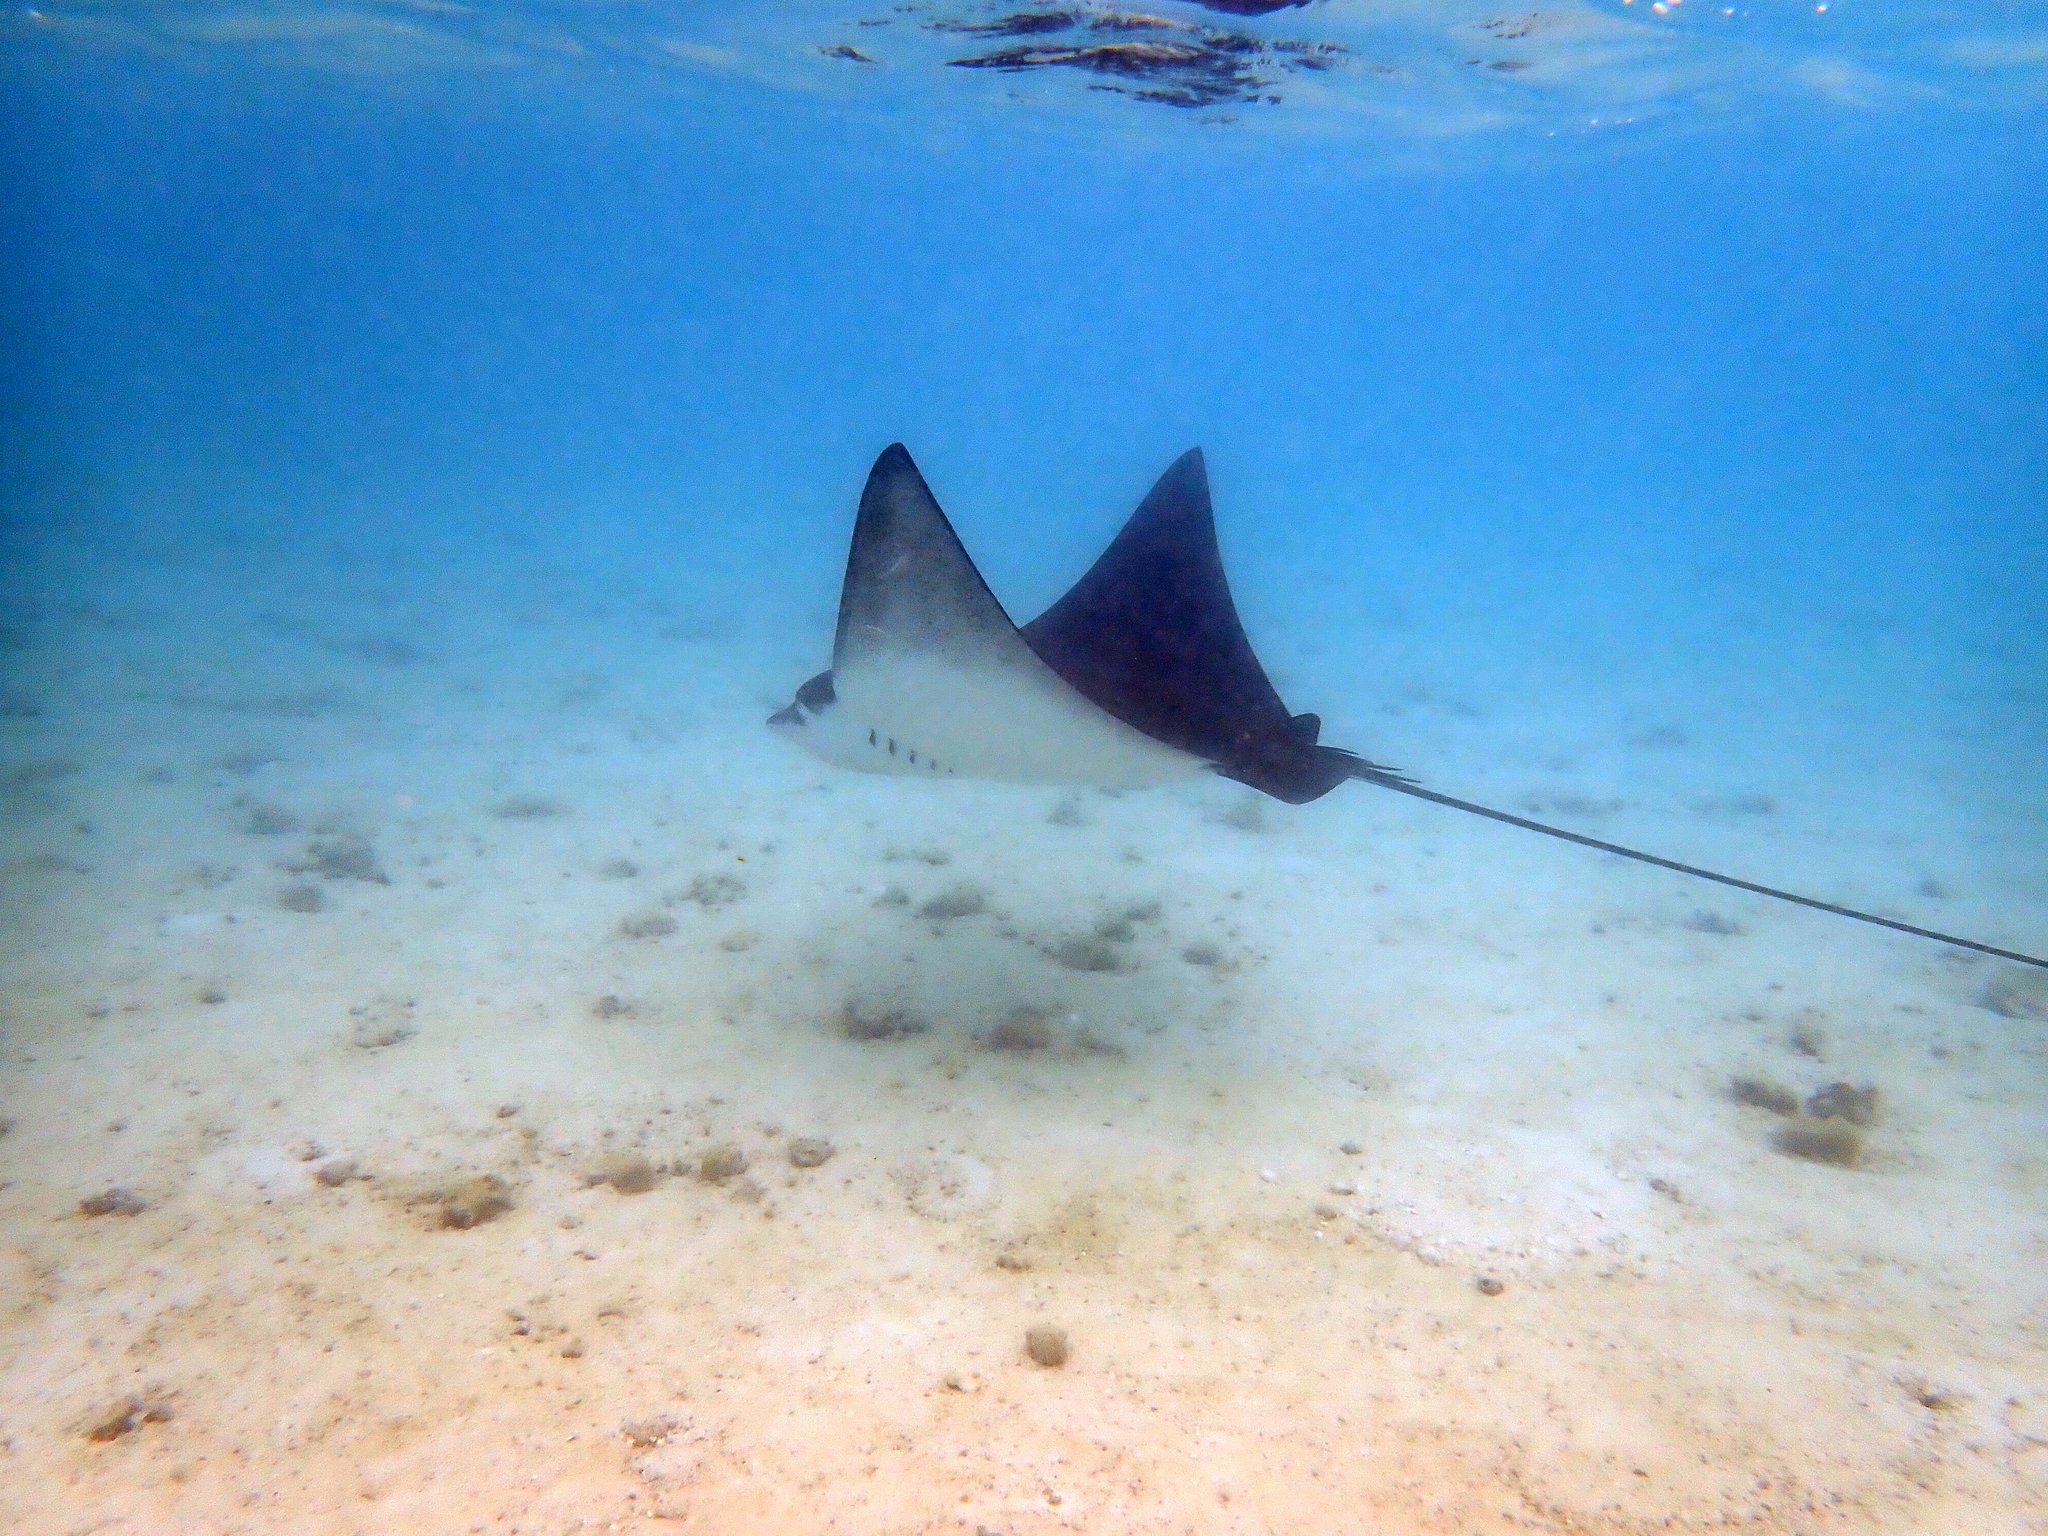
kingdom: Animalia
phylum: Chordata
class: Elasmobranchii
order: Myliobatiformes
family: Myliobatidae
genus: Aetobatus
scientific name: Aetobatus ocellatus
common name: Ocellated eagle ray
